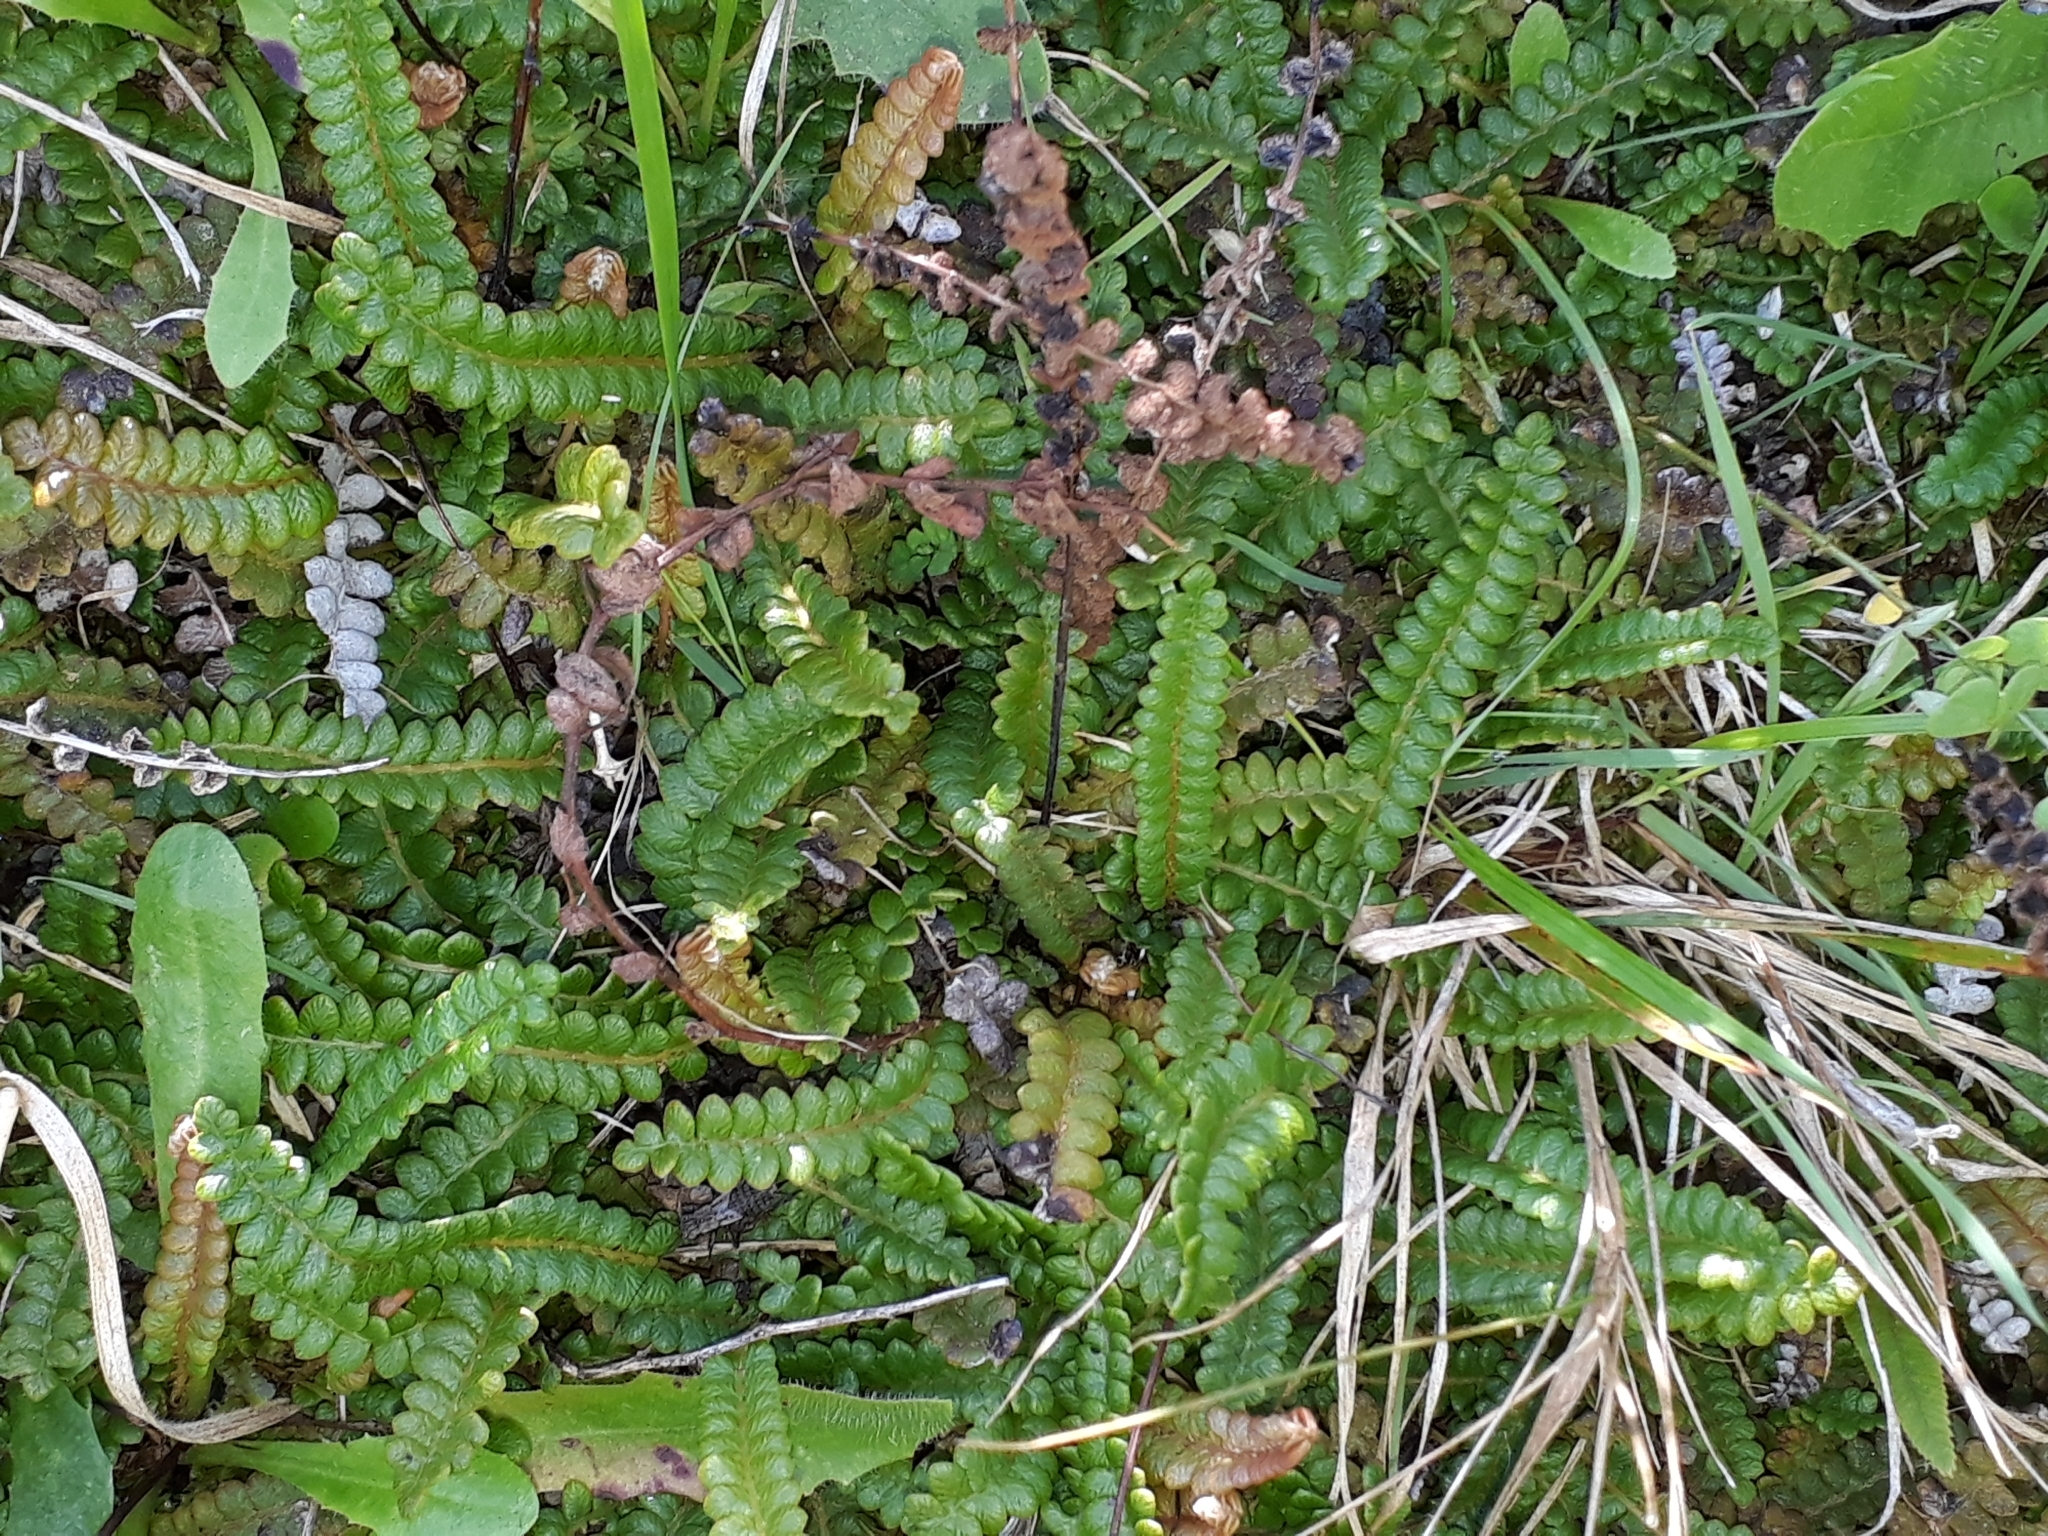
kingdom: Plantae
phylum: Tracheophyta
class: Polypodiopsida
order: Polypodiales
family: Blechnaceae
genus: Austroblechnum
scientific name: Austroblechnum penna-marina
